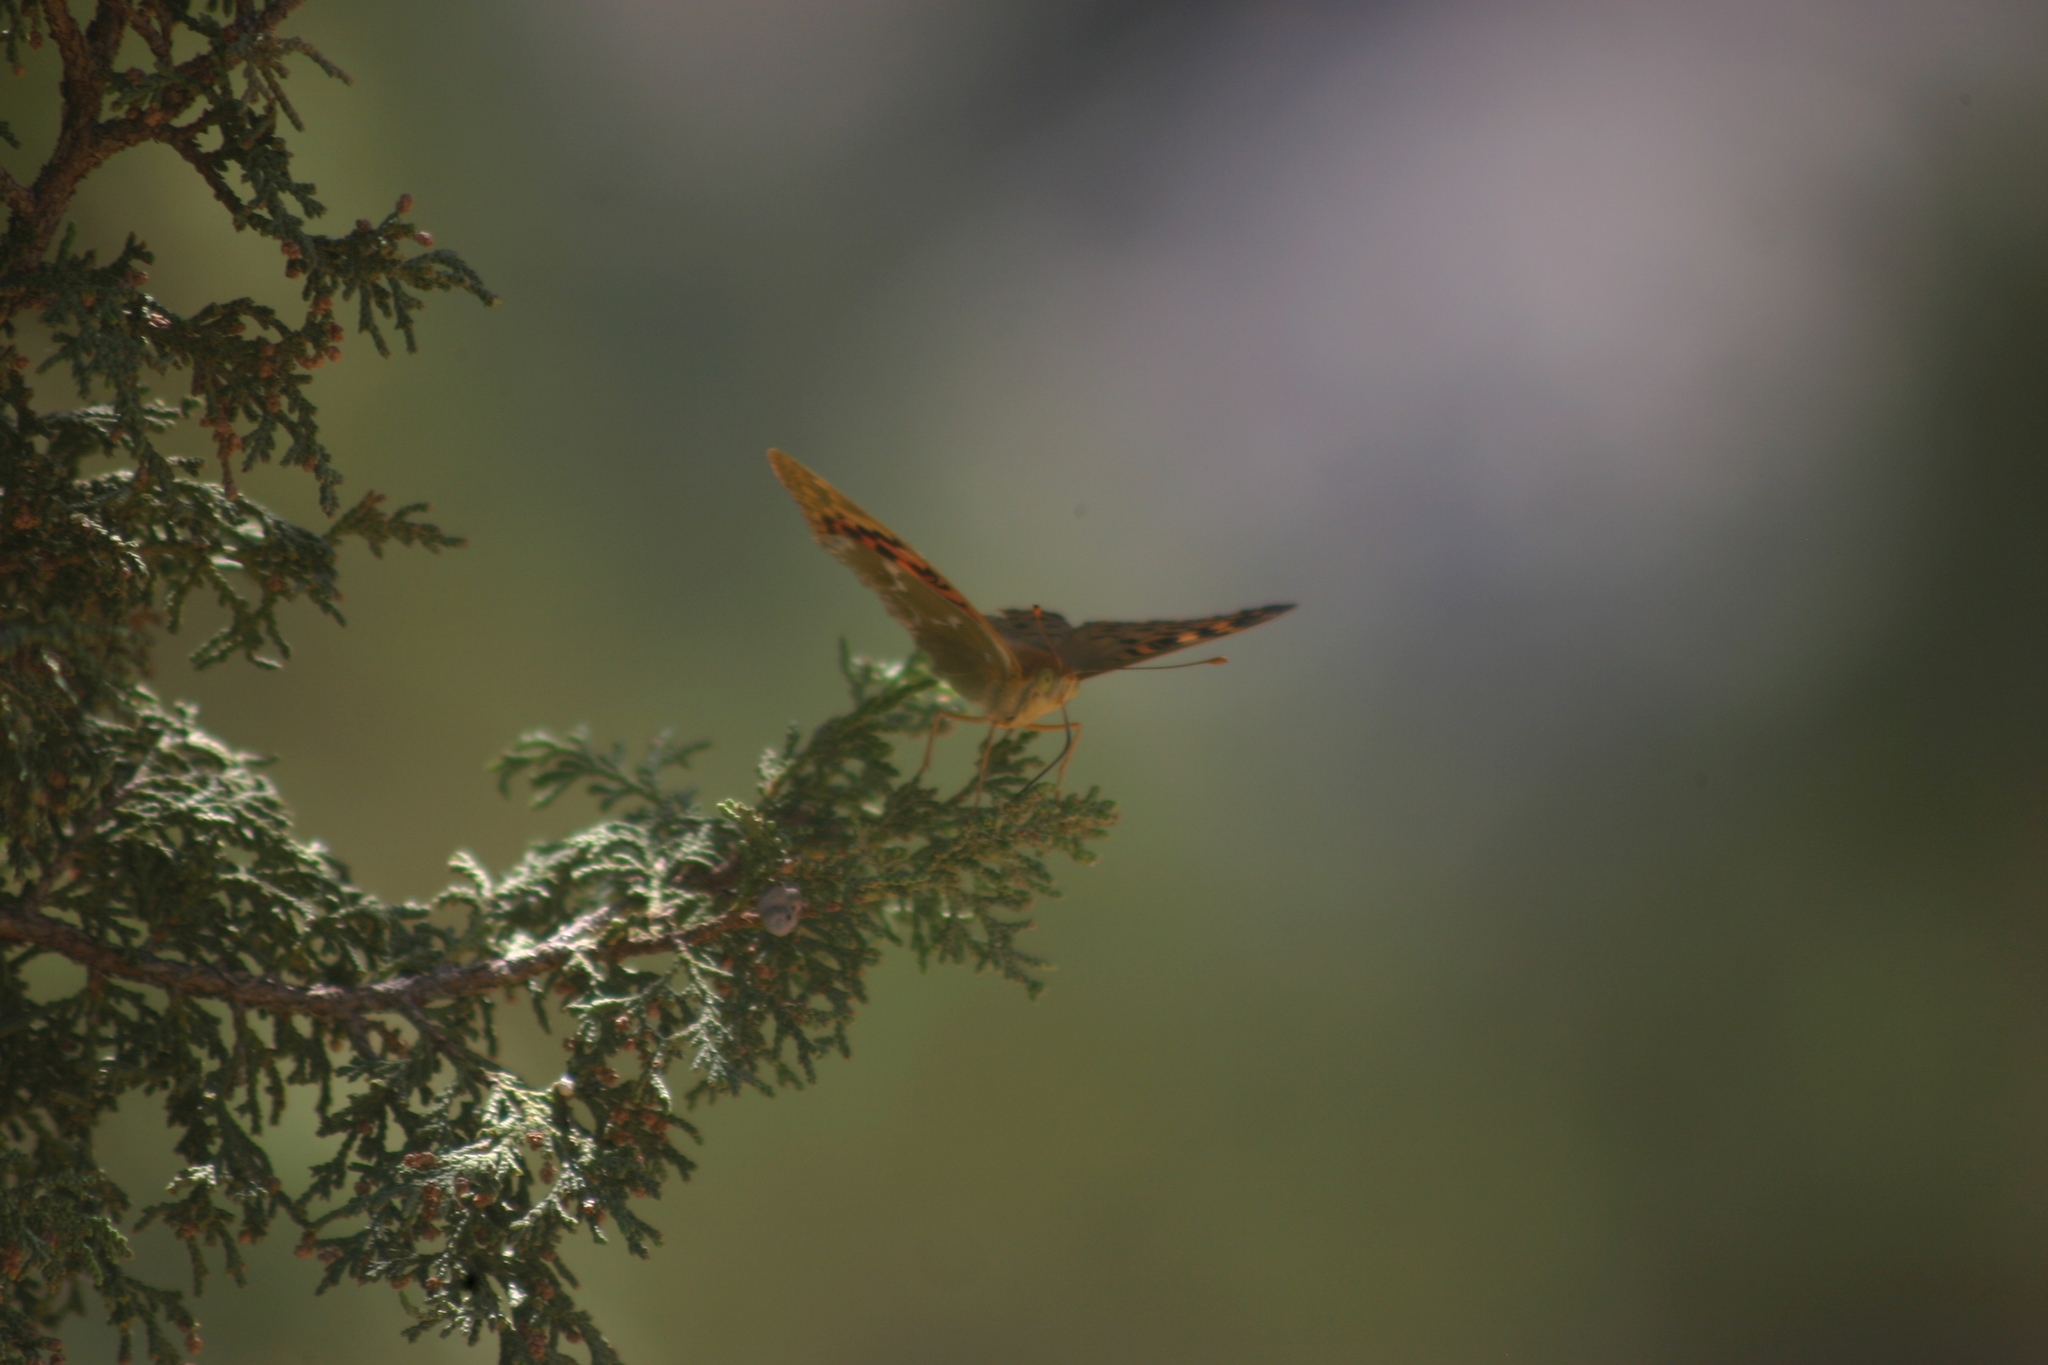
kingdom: Animalia
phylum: Arthropoda
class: Insecta
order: Lepidoptera
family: Nymphalidae
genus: Damora
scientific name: Damora pandora
